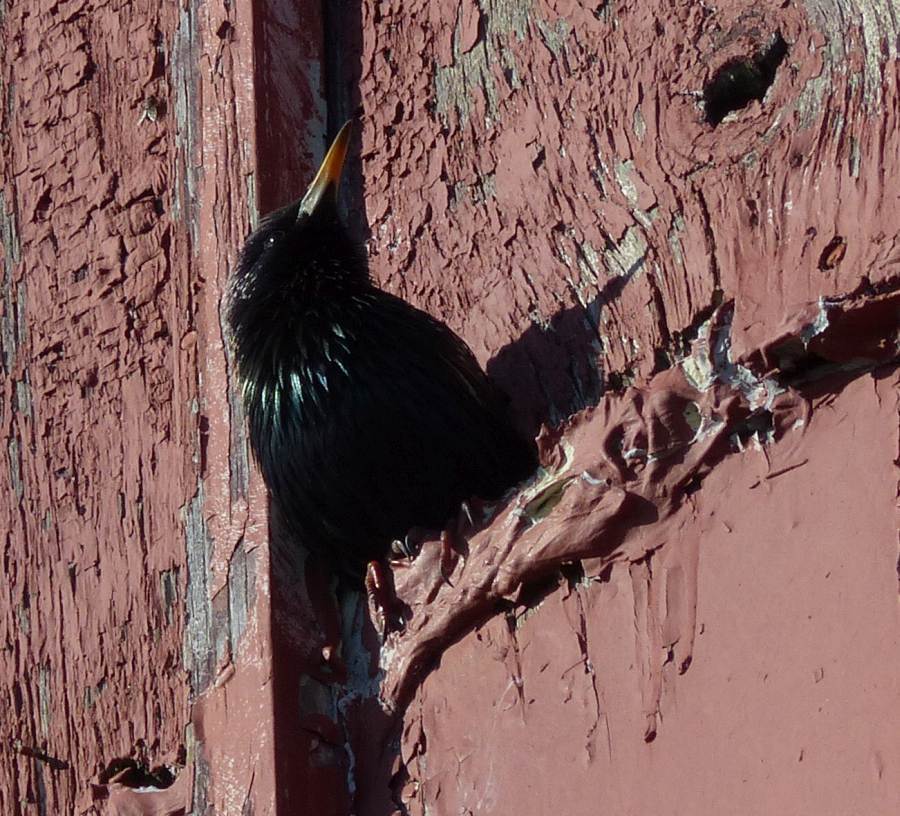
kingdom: Animalia
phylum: Chordata
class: Aves
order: Passeriformes
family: Sturnidae
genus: Sturnus
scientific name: Sturnus vulgaris
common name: Common starling
